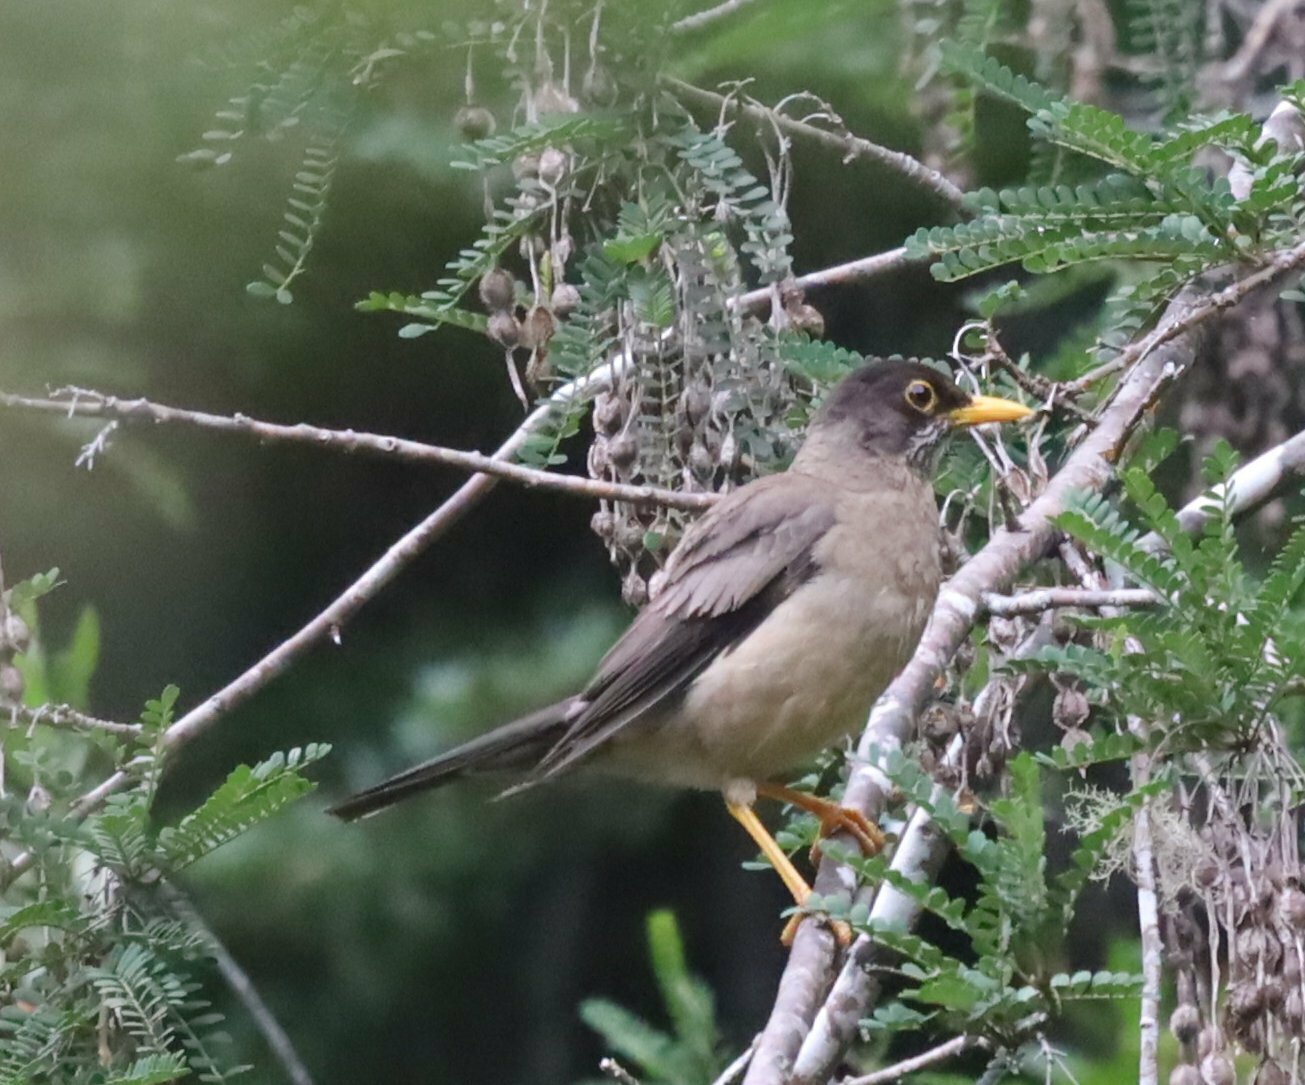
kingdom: Animalia
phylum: Chordata
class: Aves
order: Passeriformes
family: Turdidae
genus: Turdus
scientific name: Turdus falcklandii
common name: Austral thrush
